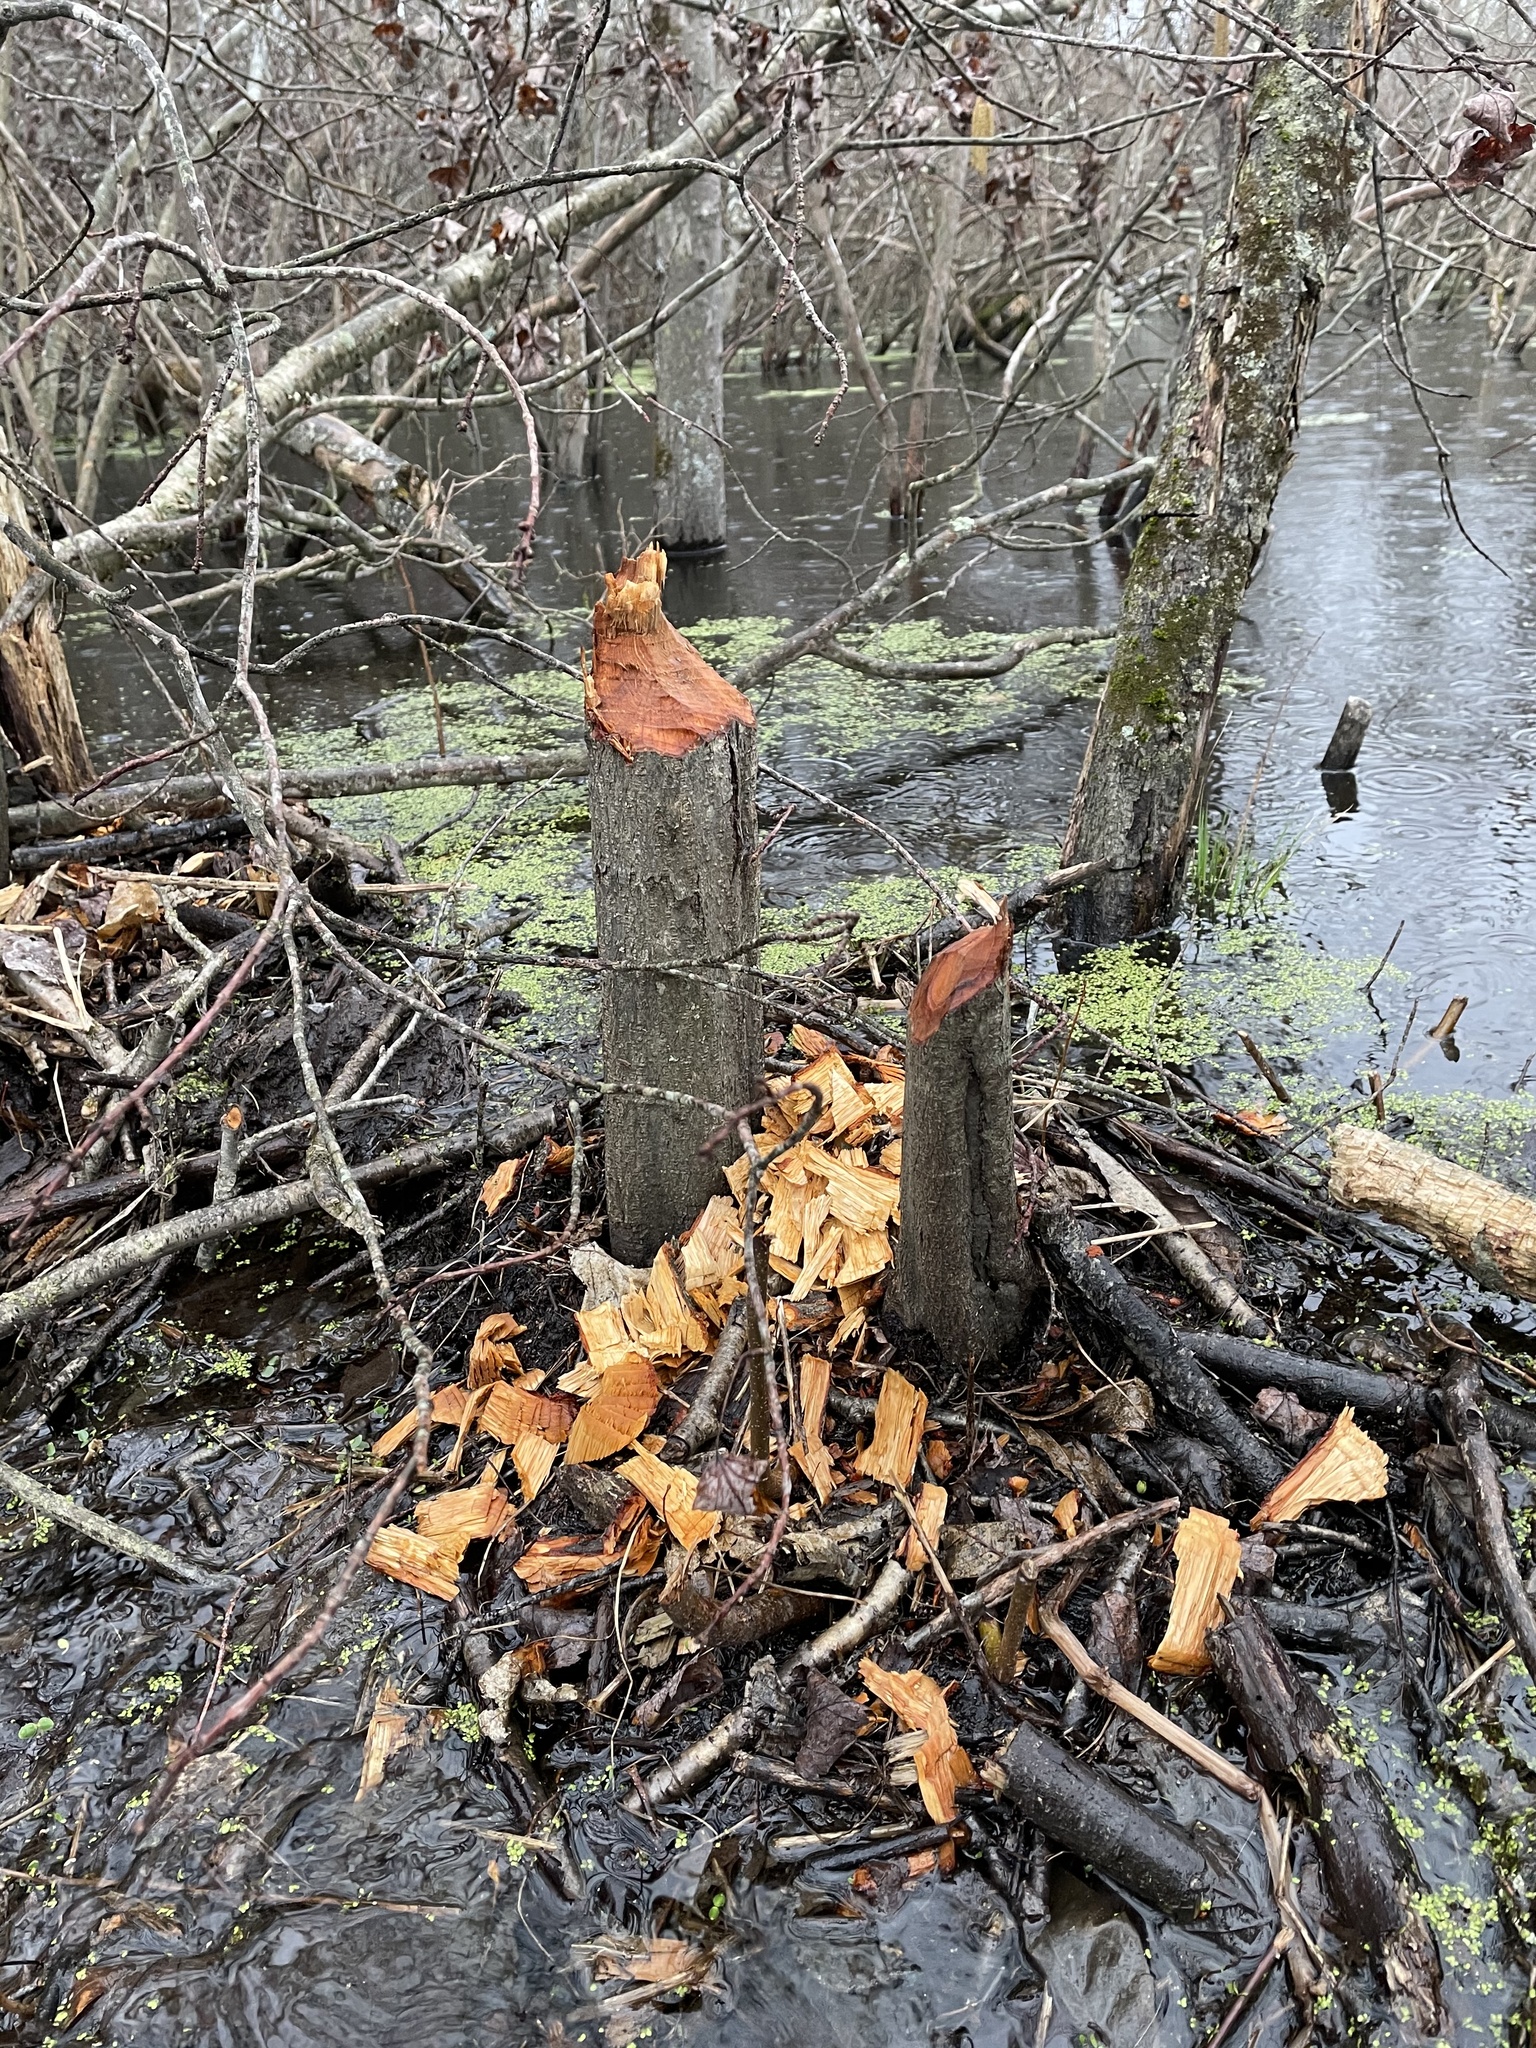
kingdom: Animalia
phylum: Chordata
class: Mammalia
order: Rodentia
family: Castoridae
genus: Castor
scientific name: Castor canadensis
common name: American beaver
